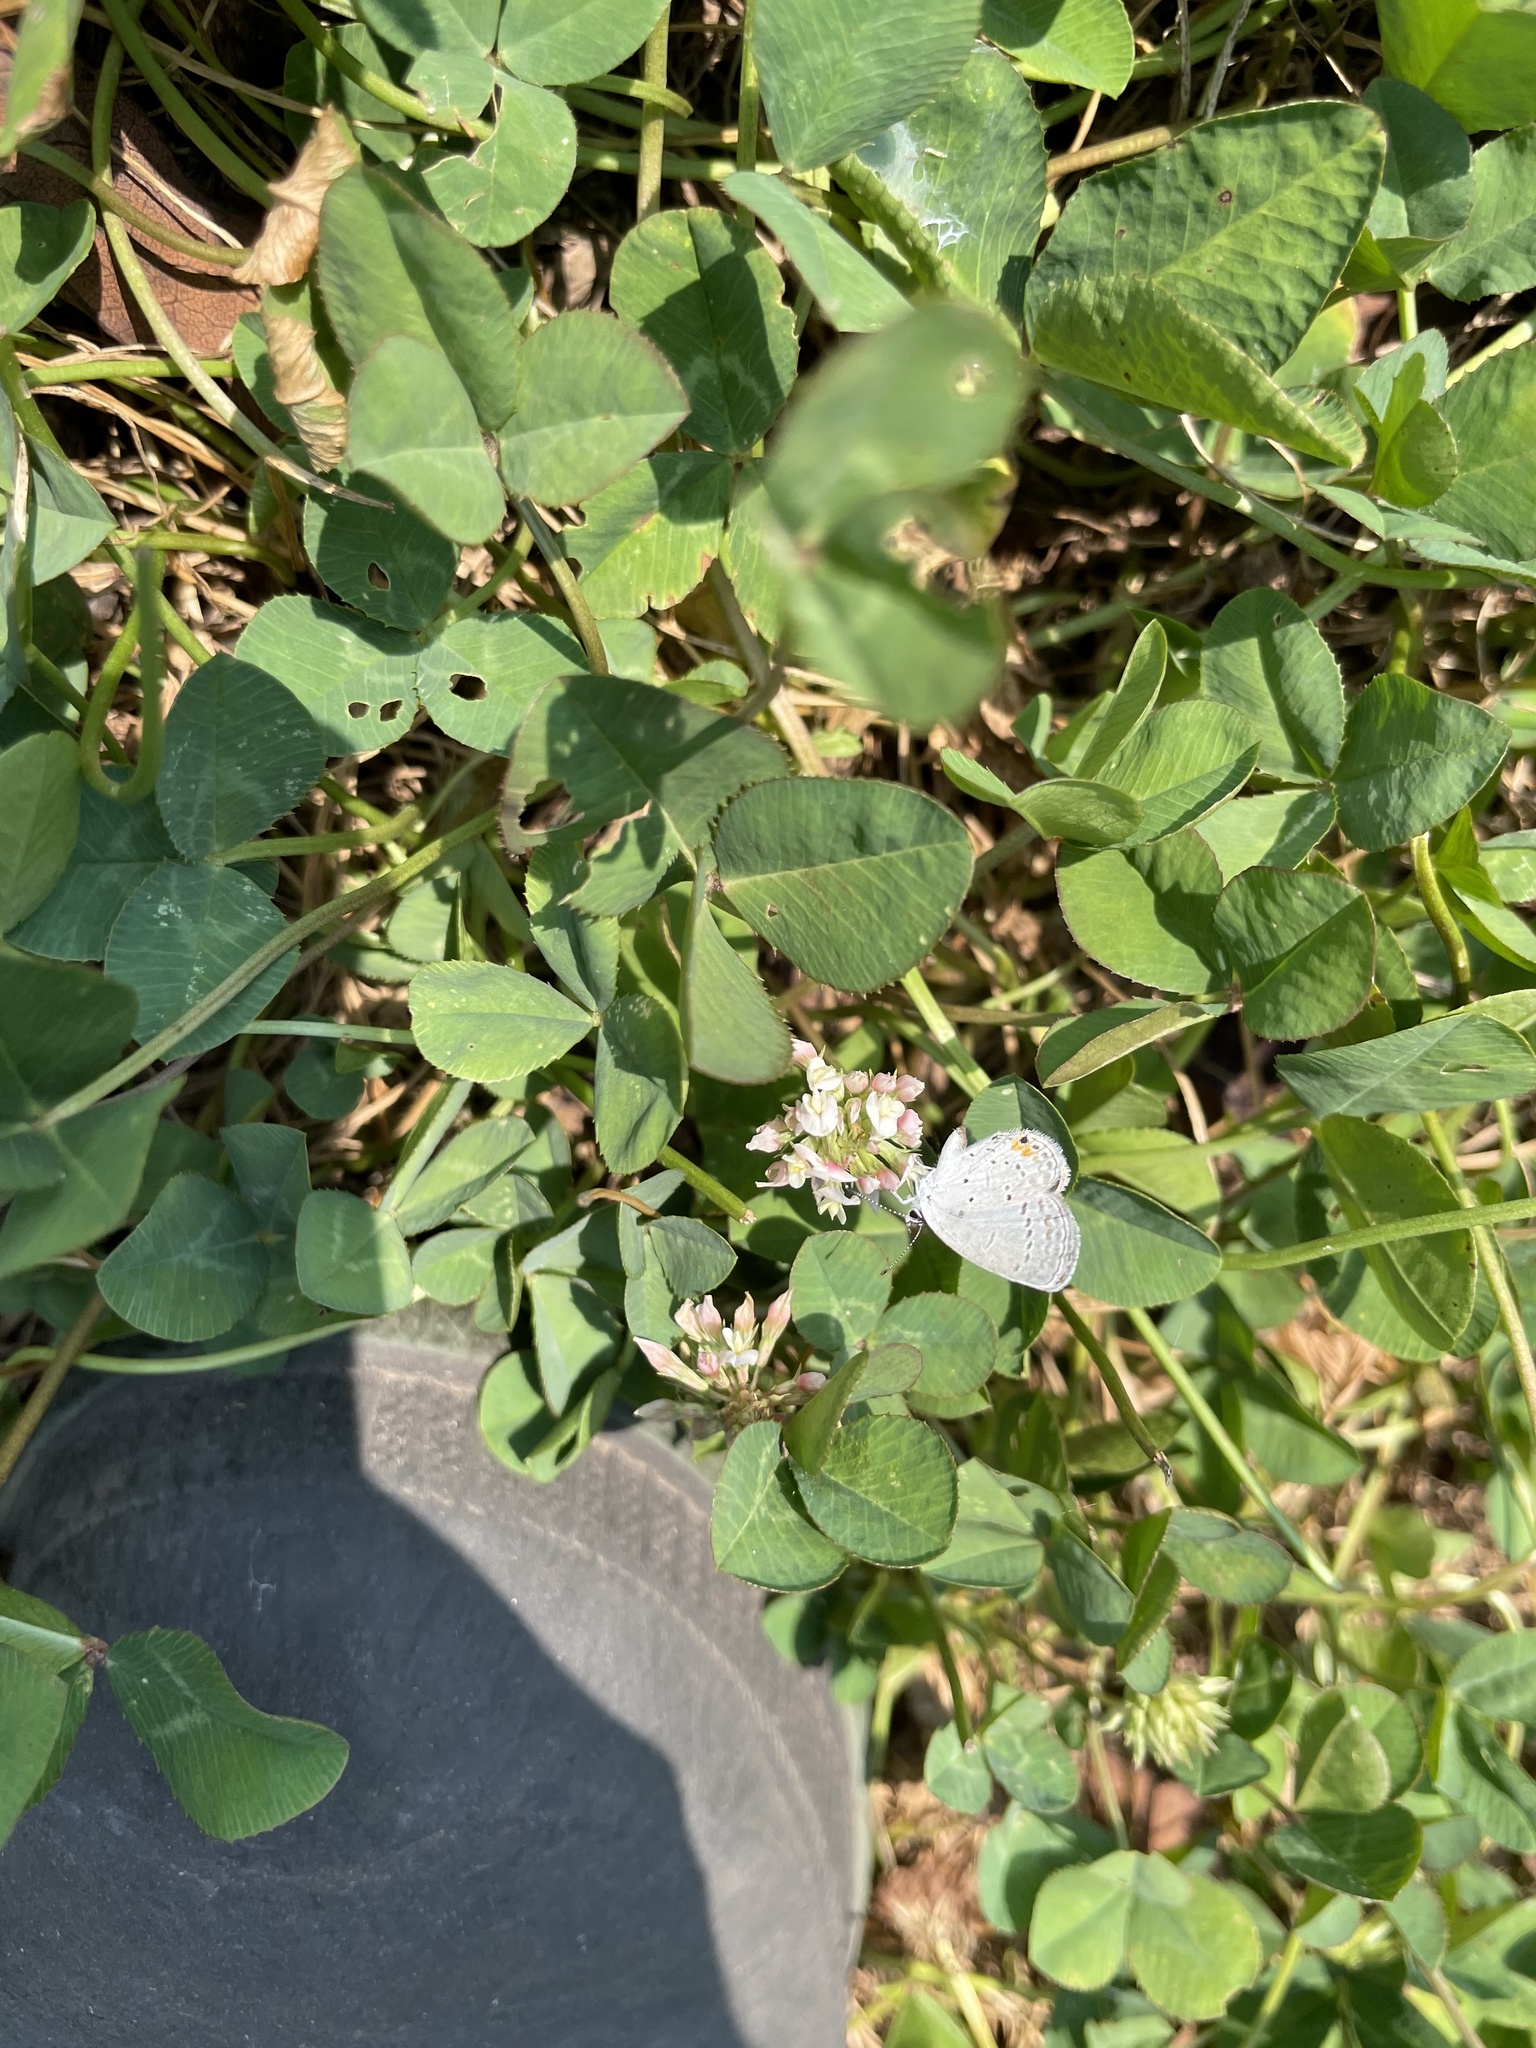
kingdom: Animalia
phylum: Arthropoda
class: Insecta
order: Lepidoptera
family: Lycaenidae
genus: Elkalyce
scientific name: Elkalyce comyntas
